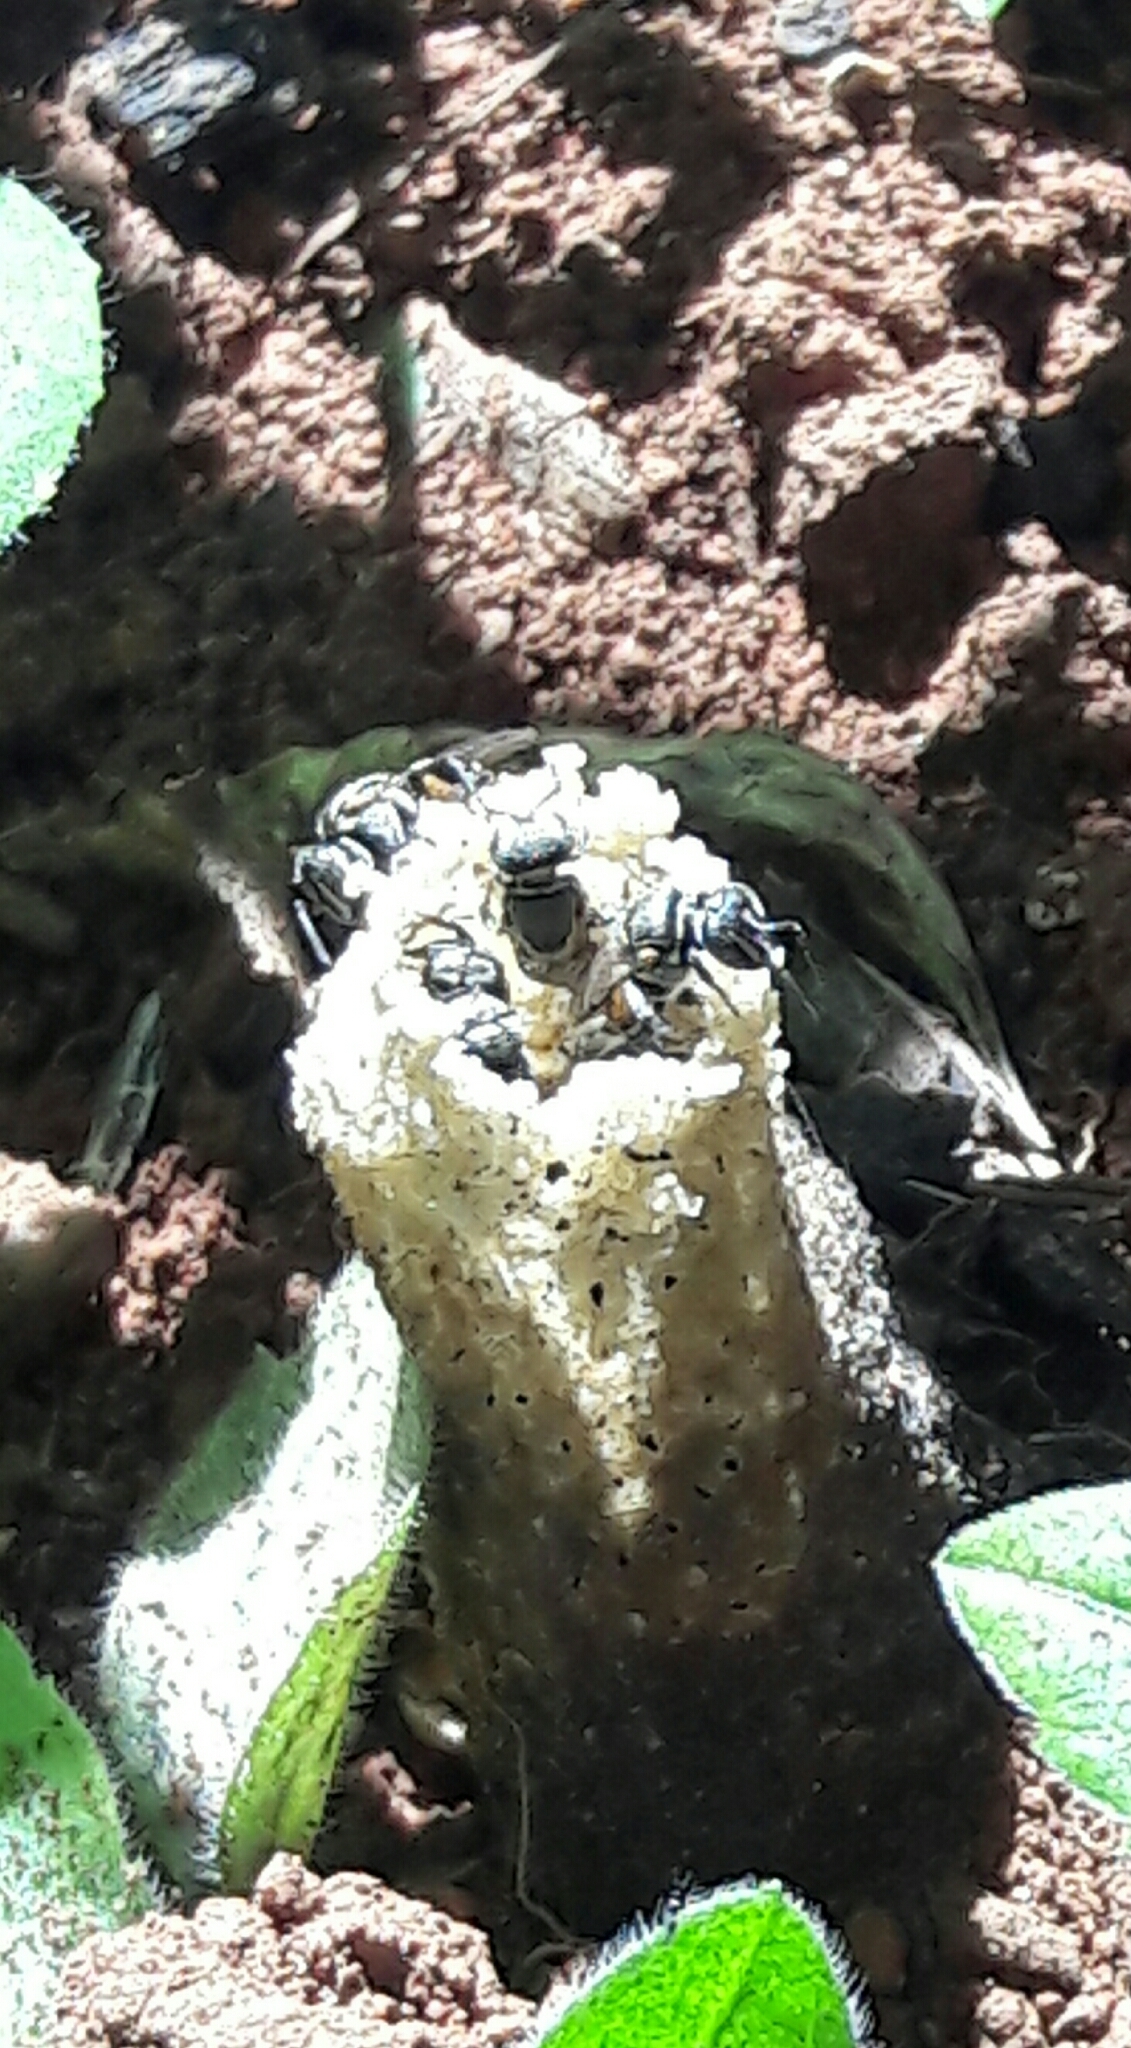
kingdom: Animalia
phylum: Arthropoda
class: Insecta
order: Hymenoptera
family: Apidae
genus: Paratrigona
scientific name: Paratrigona lineata
